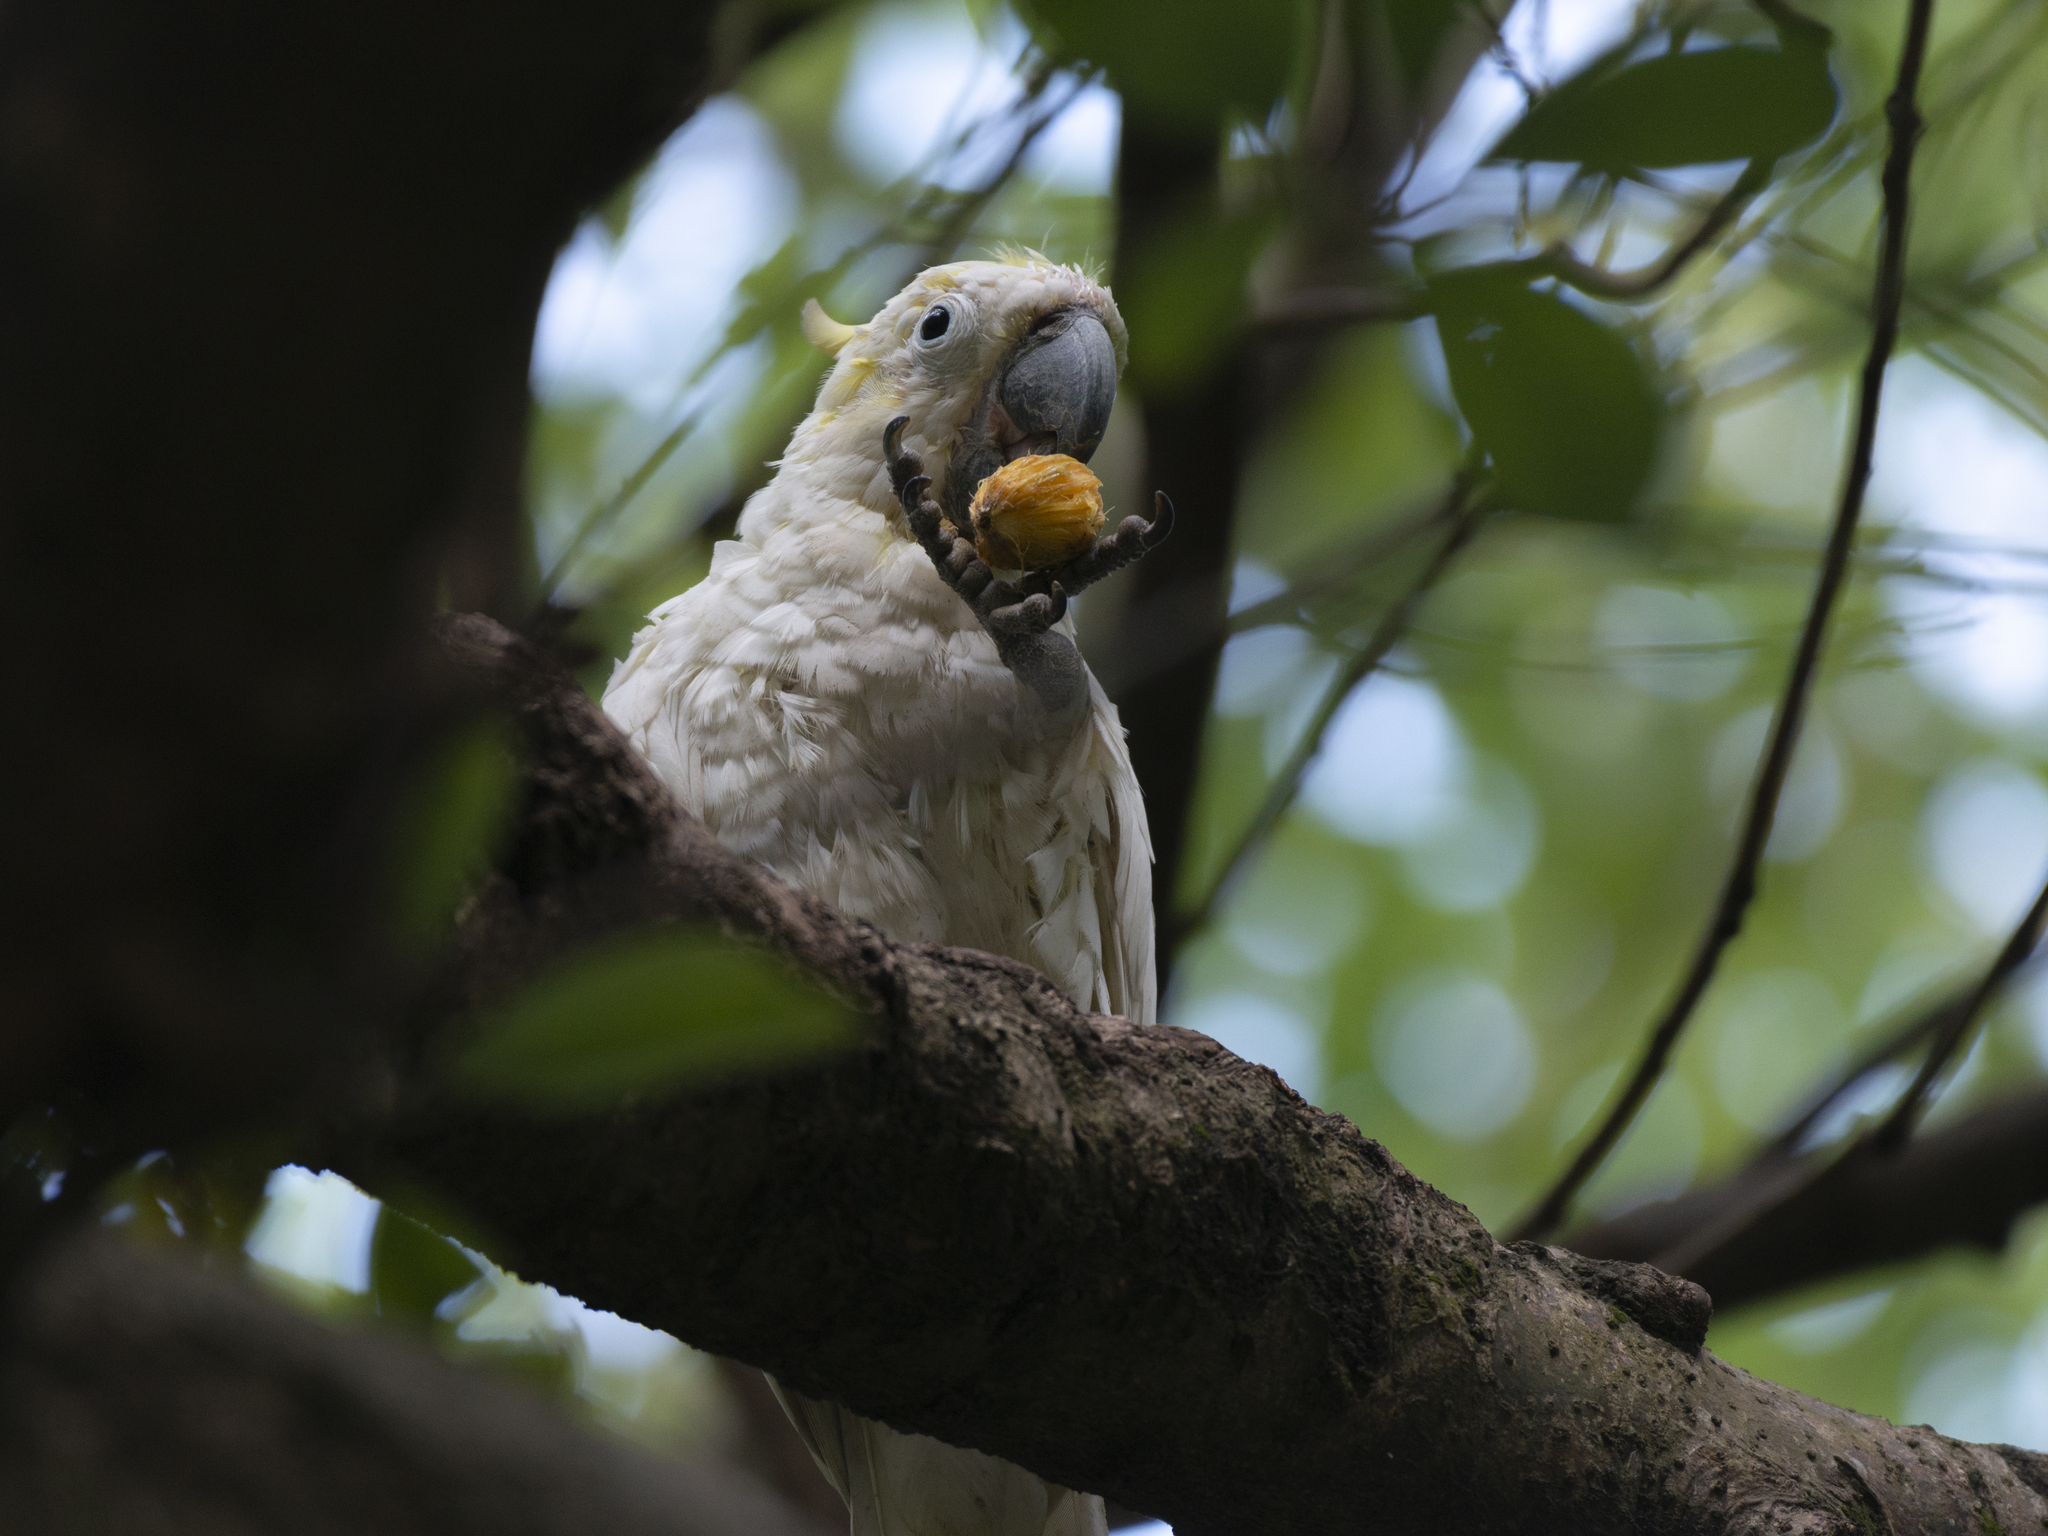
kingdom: Animalia
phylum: Chordata
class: Aves
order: Psittaciformes
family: Psittacidae
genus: Cacatua
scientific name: Cacatua sulphurea
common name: Yellow-crested cockatoo
